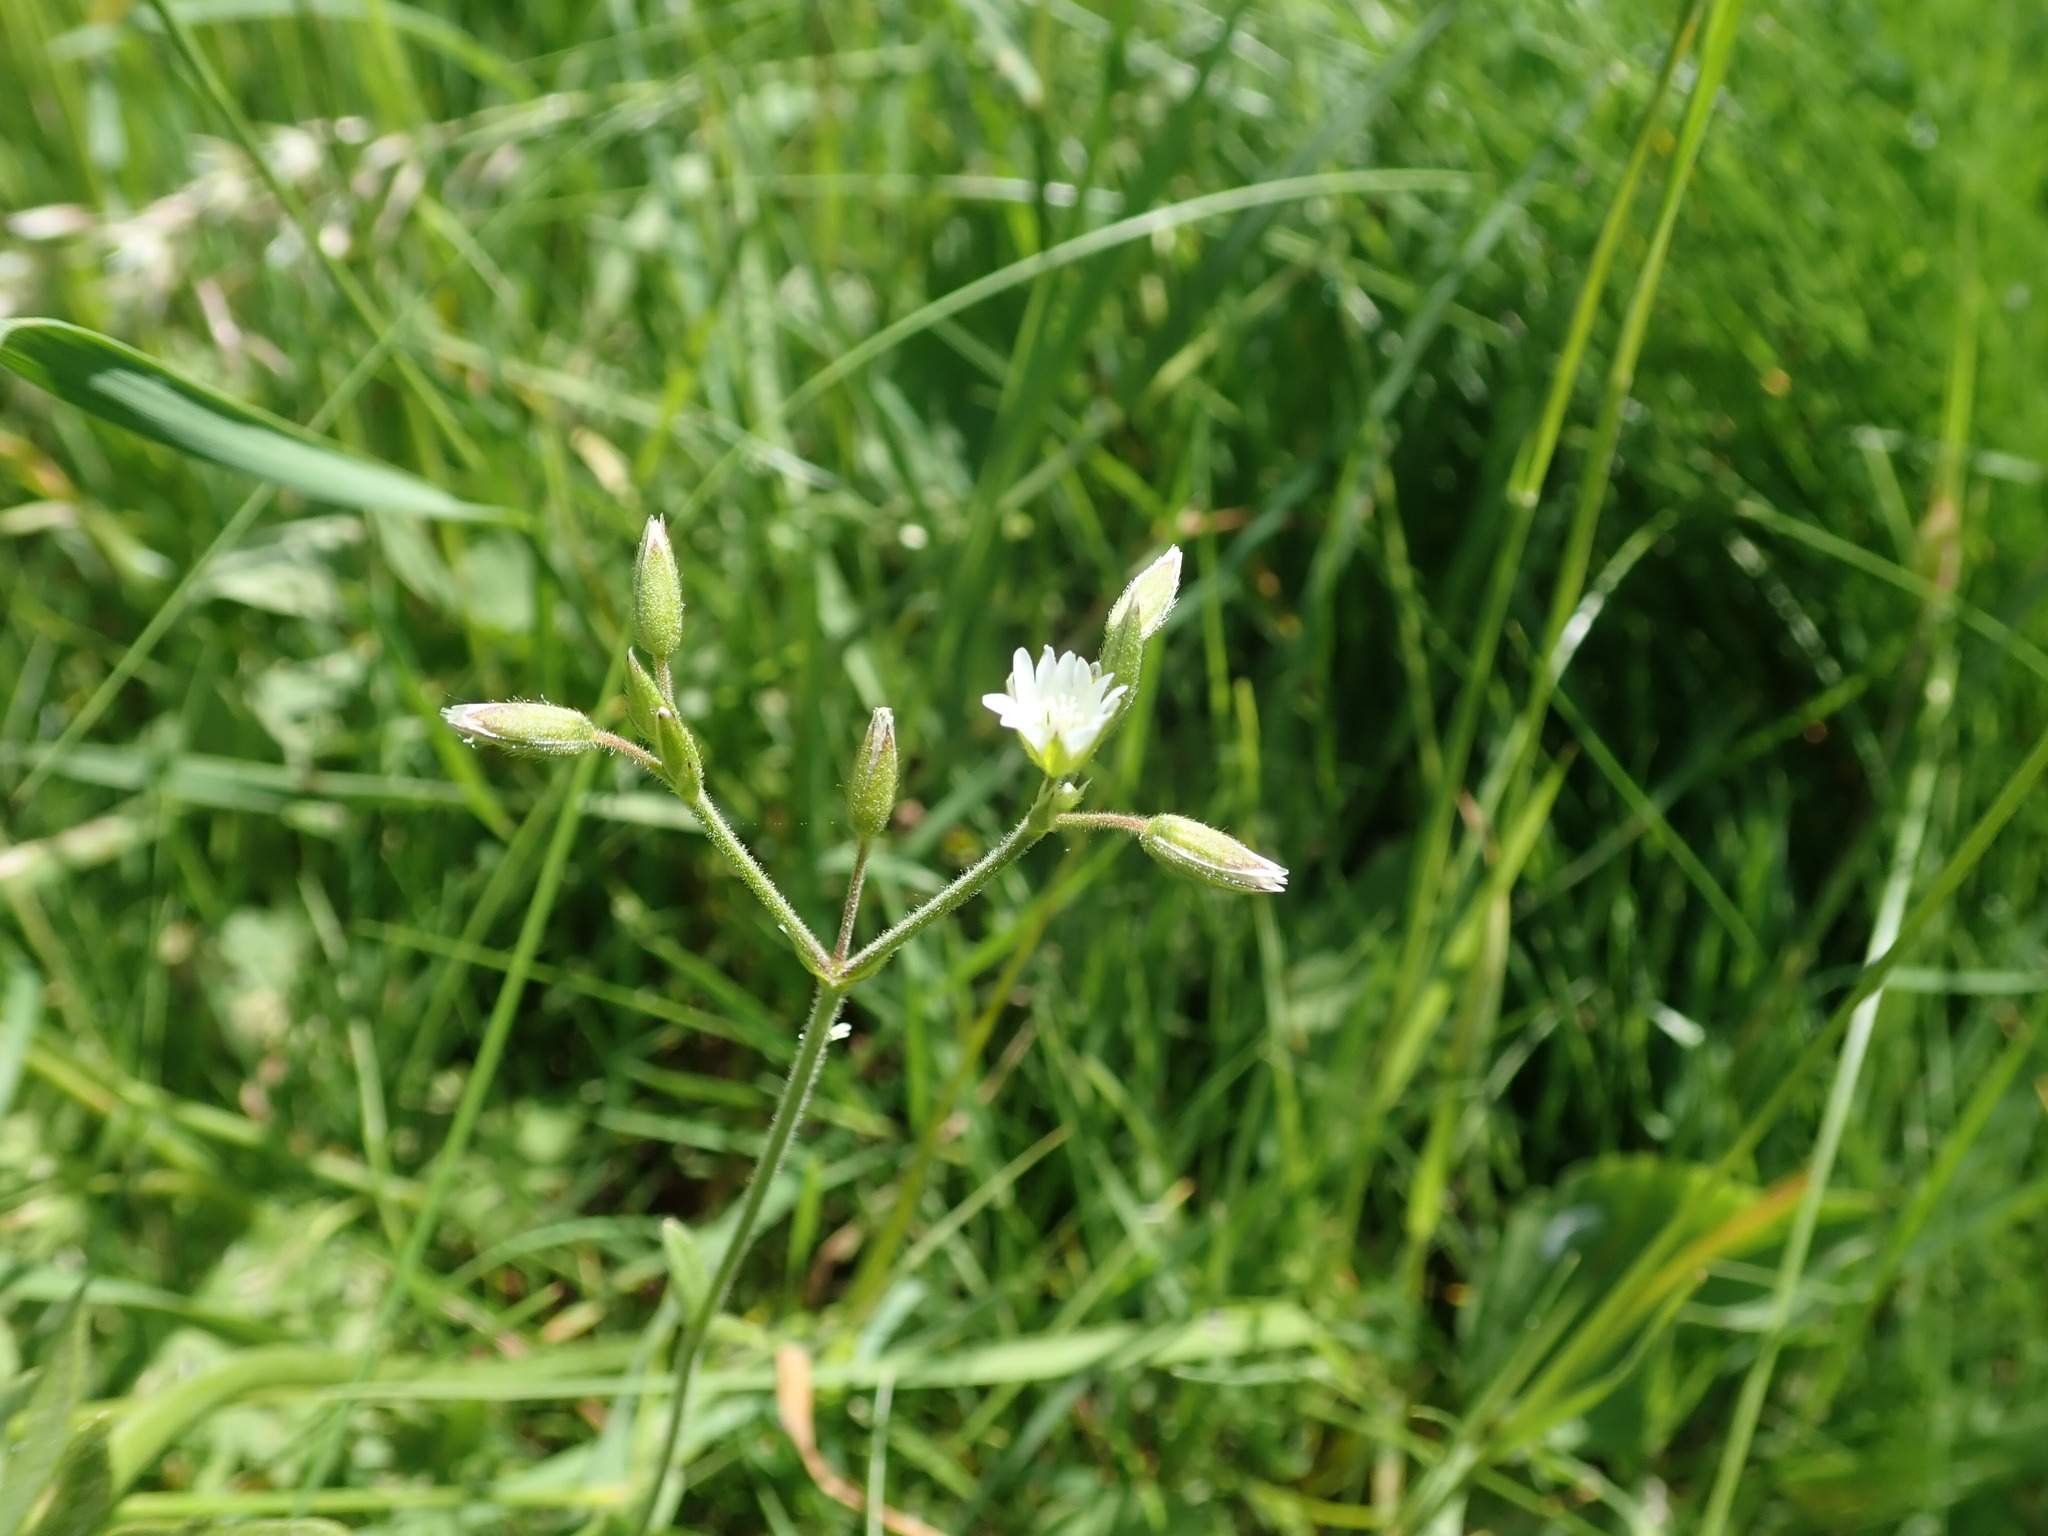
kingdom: Plantae
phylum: Tracheophyta
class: Magnoliopsida
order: Caryophyllales
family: Caryophyllaceae
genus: Cerastium
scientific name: Cerastium fontanum
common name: Common mouse-ear
